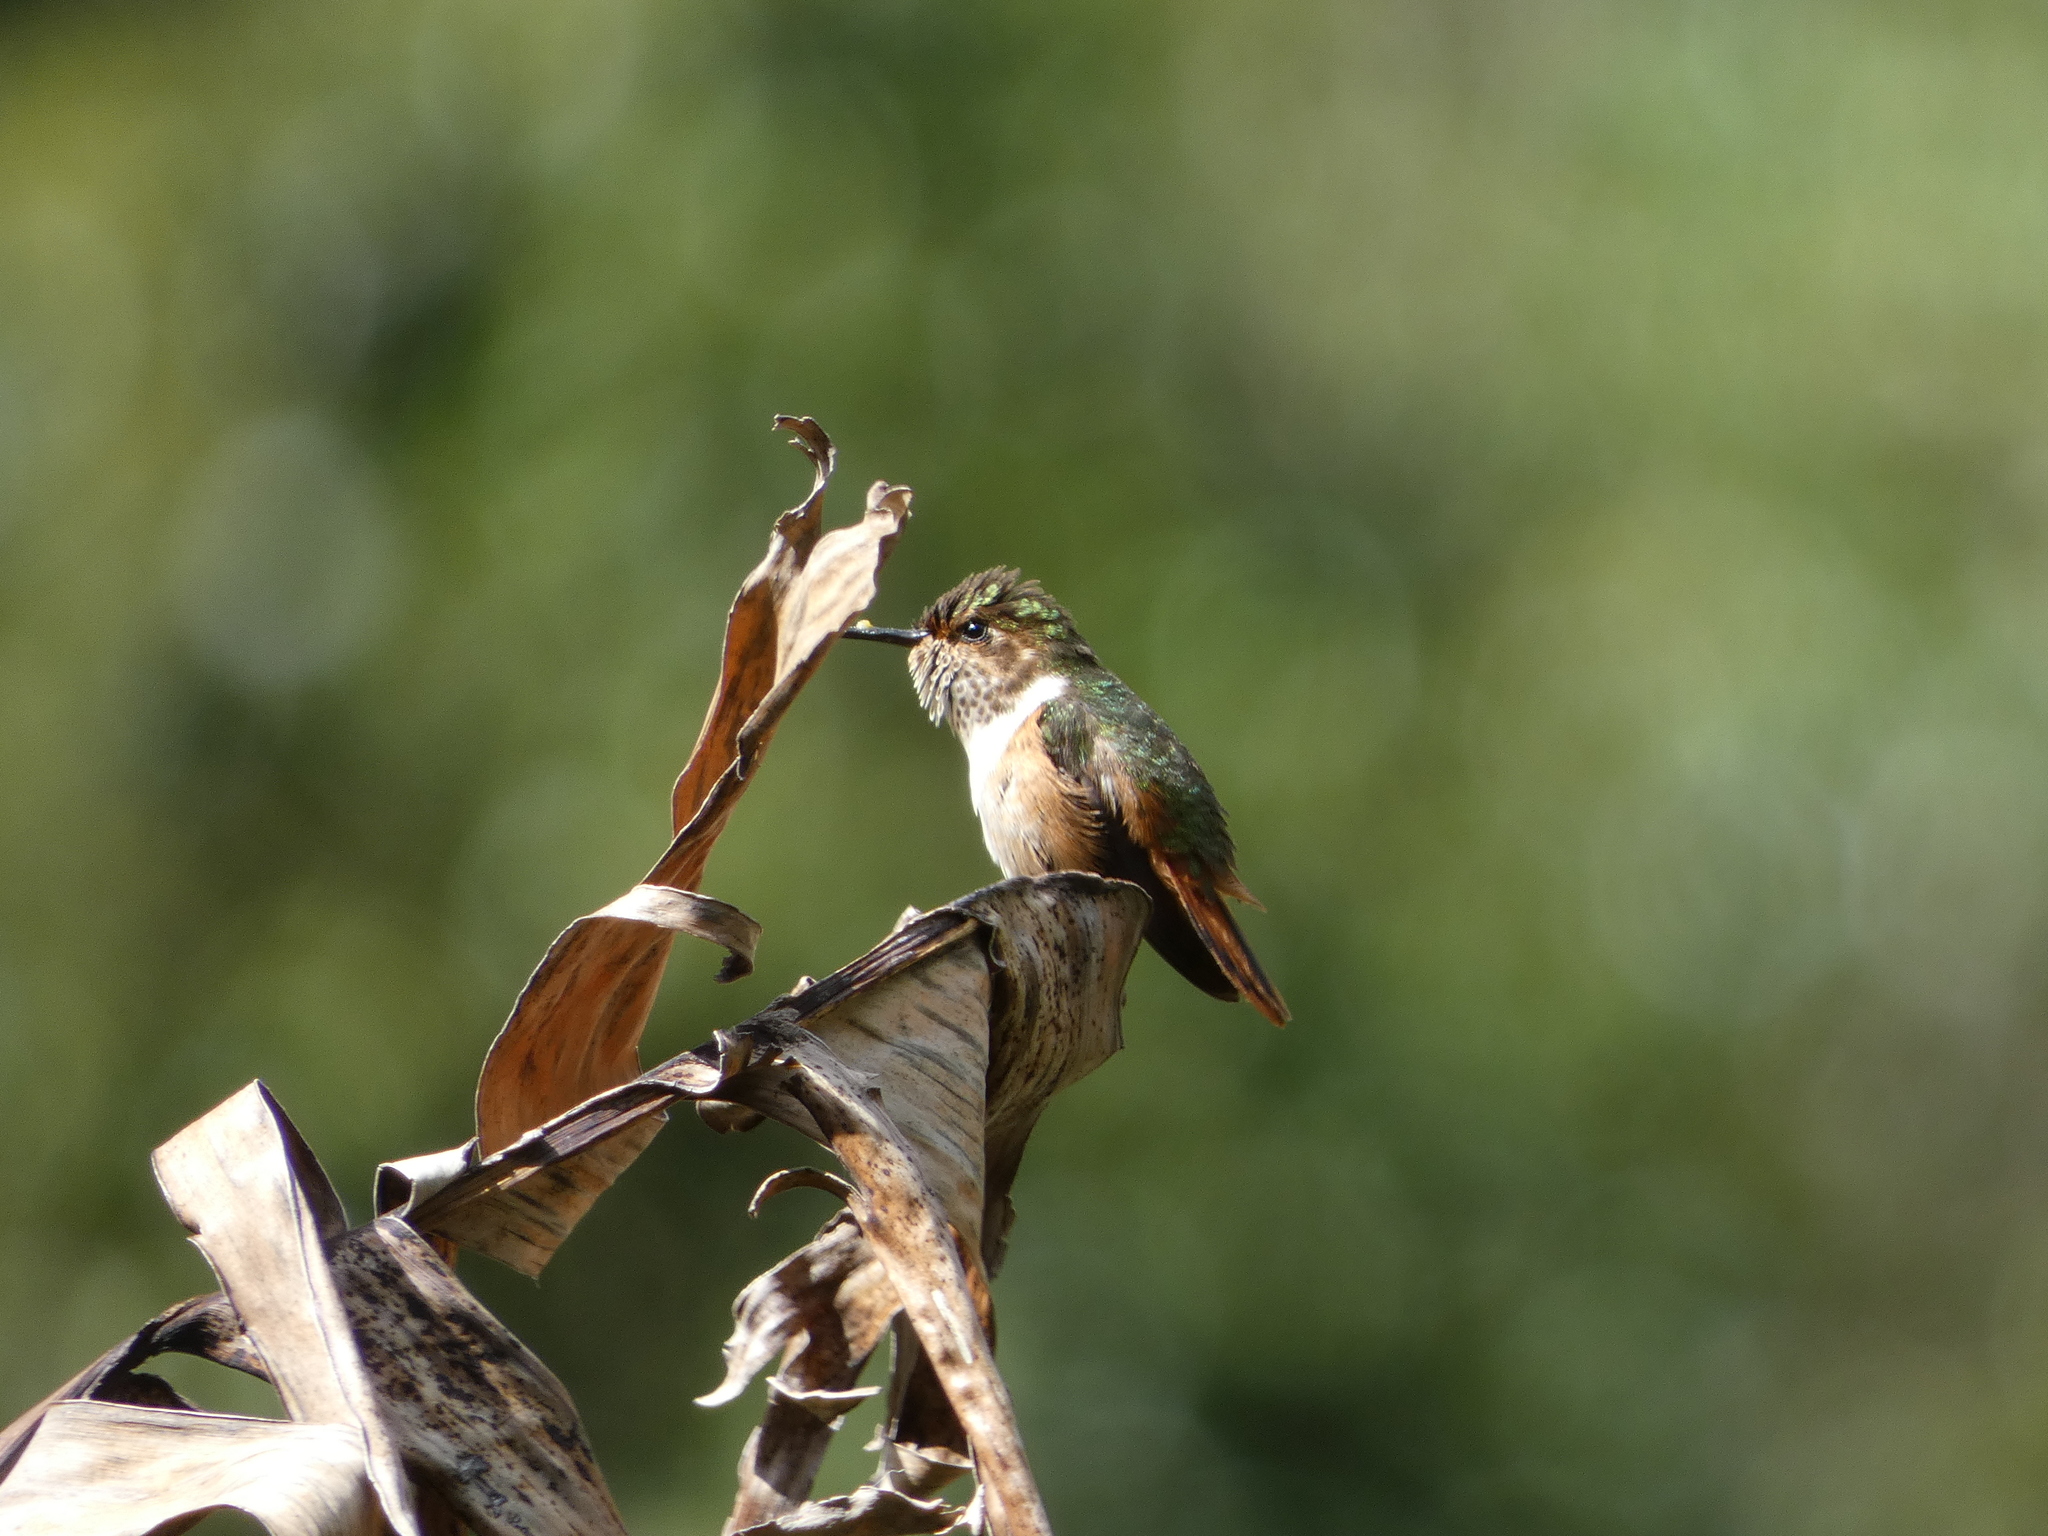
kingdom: Animalia
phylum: Chordata
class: Aves
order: Apodiformes
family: Trochilidae
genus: Selasphorus
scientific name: Selasphorus scintilla
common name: Scintillant hummingbird
